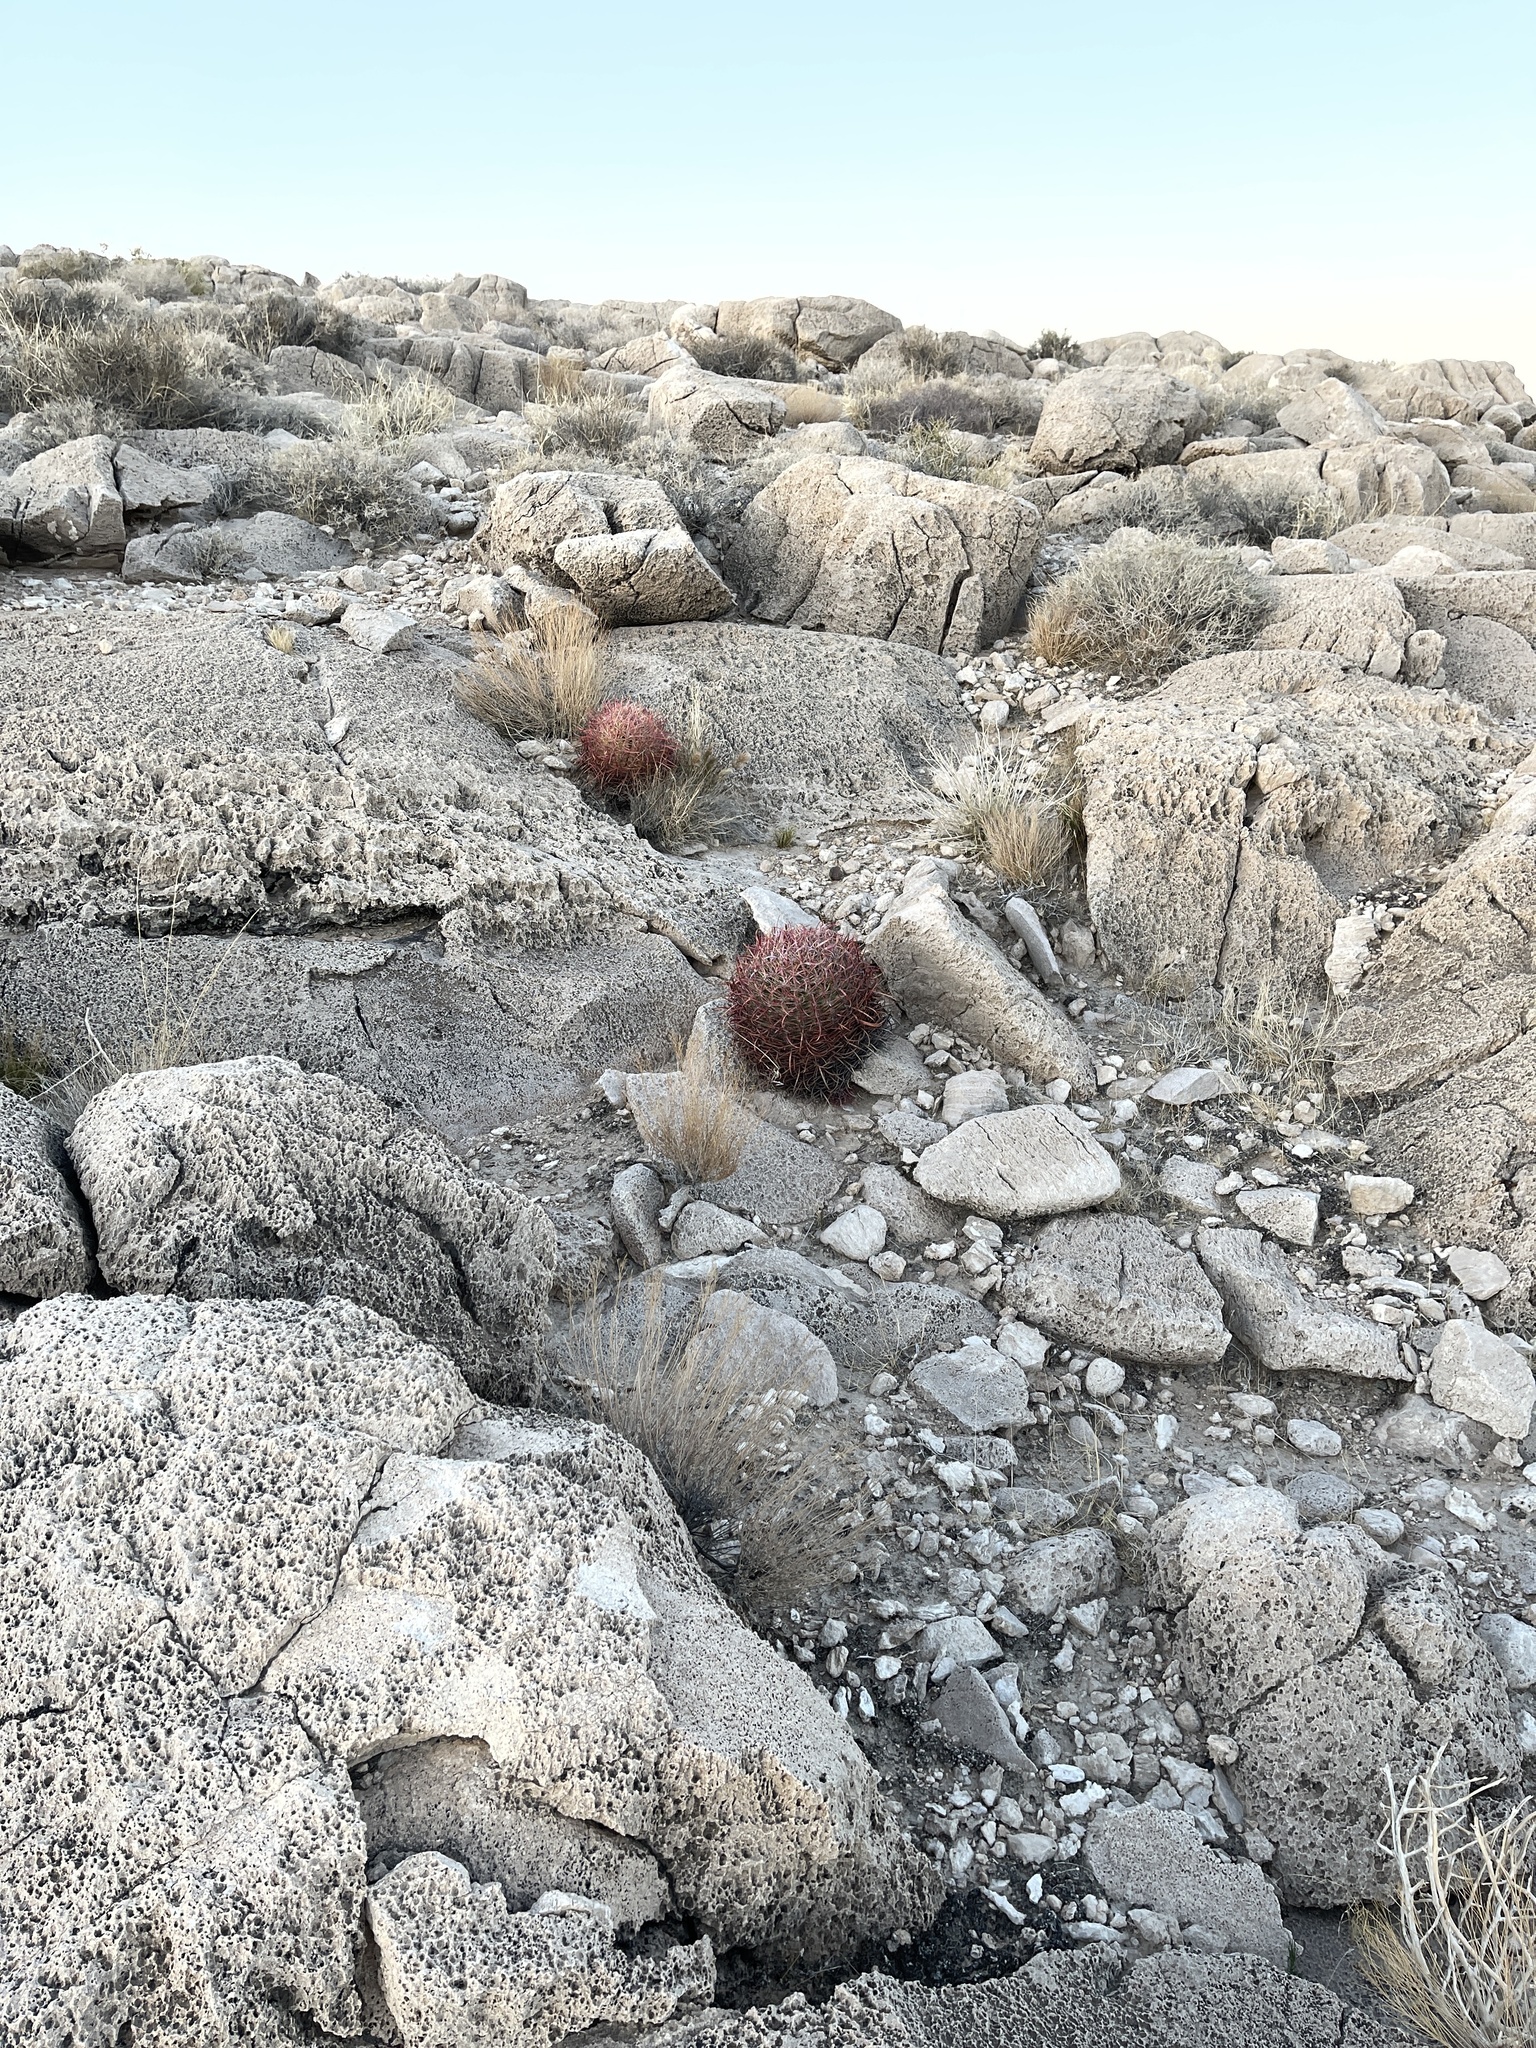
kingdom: Plantae
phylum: Tracheophyta
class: Magnoliopsida
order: Caryophyllales
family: Cactaceae
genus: Ferocactus
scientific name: Ferocactus cylindraceus
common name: California barrel cactus
